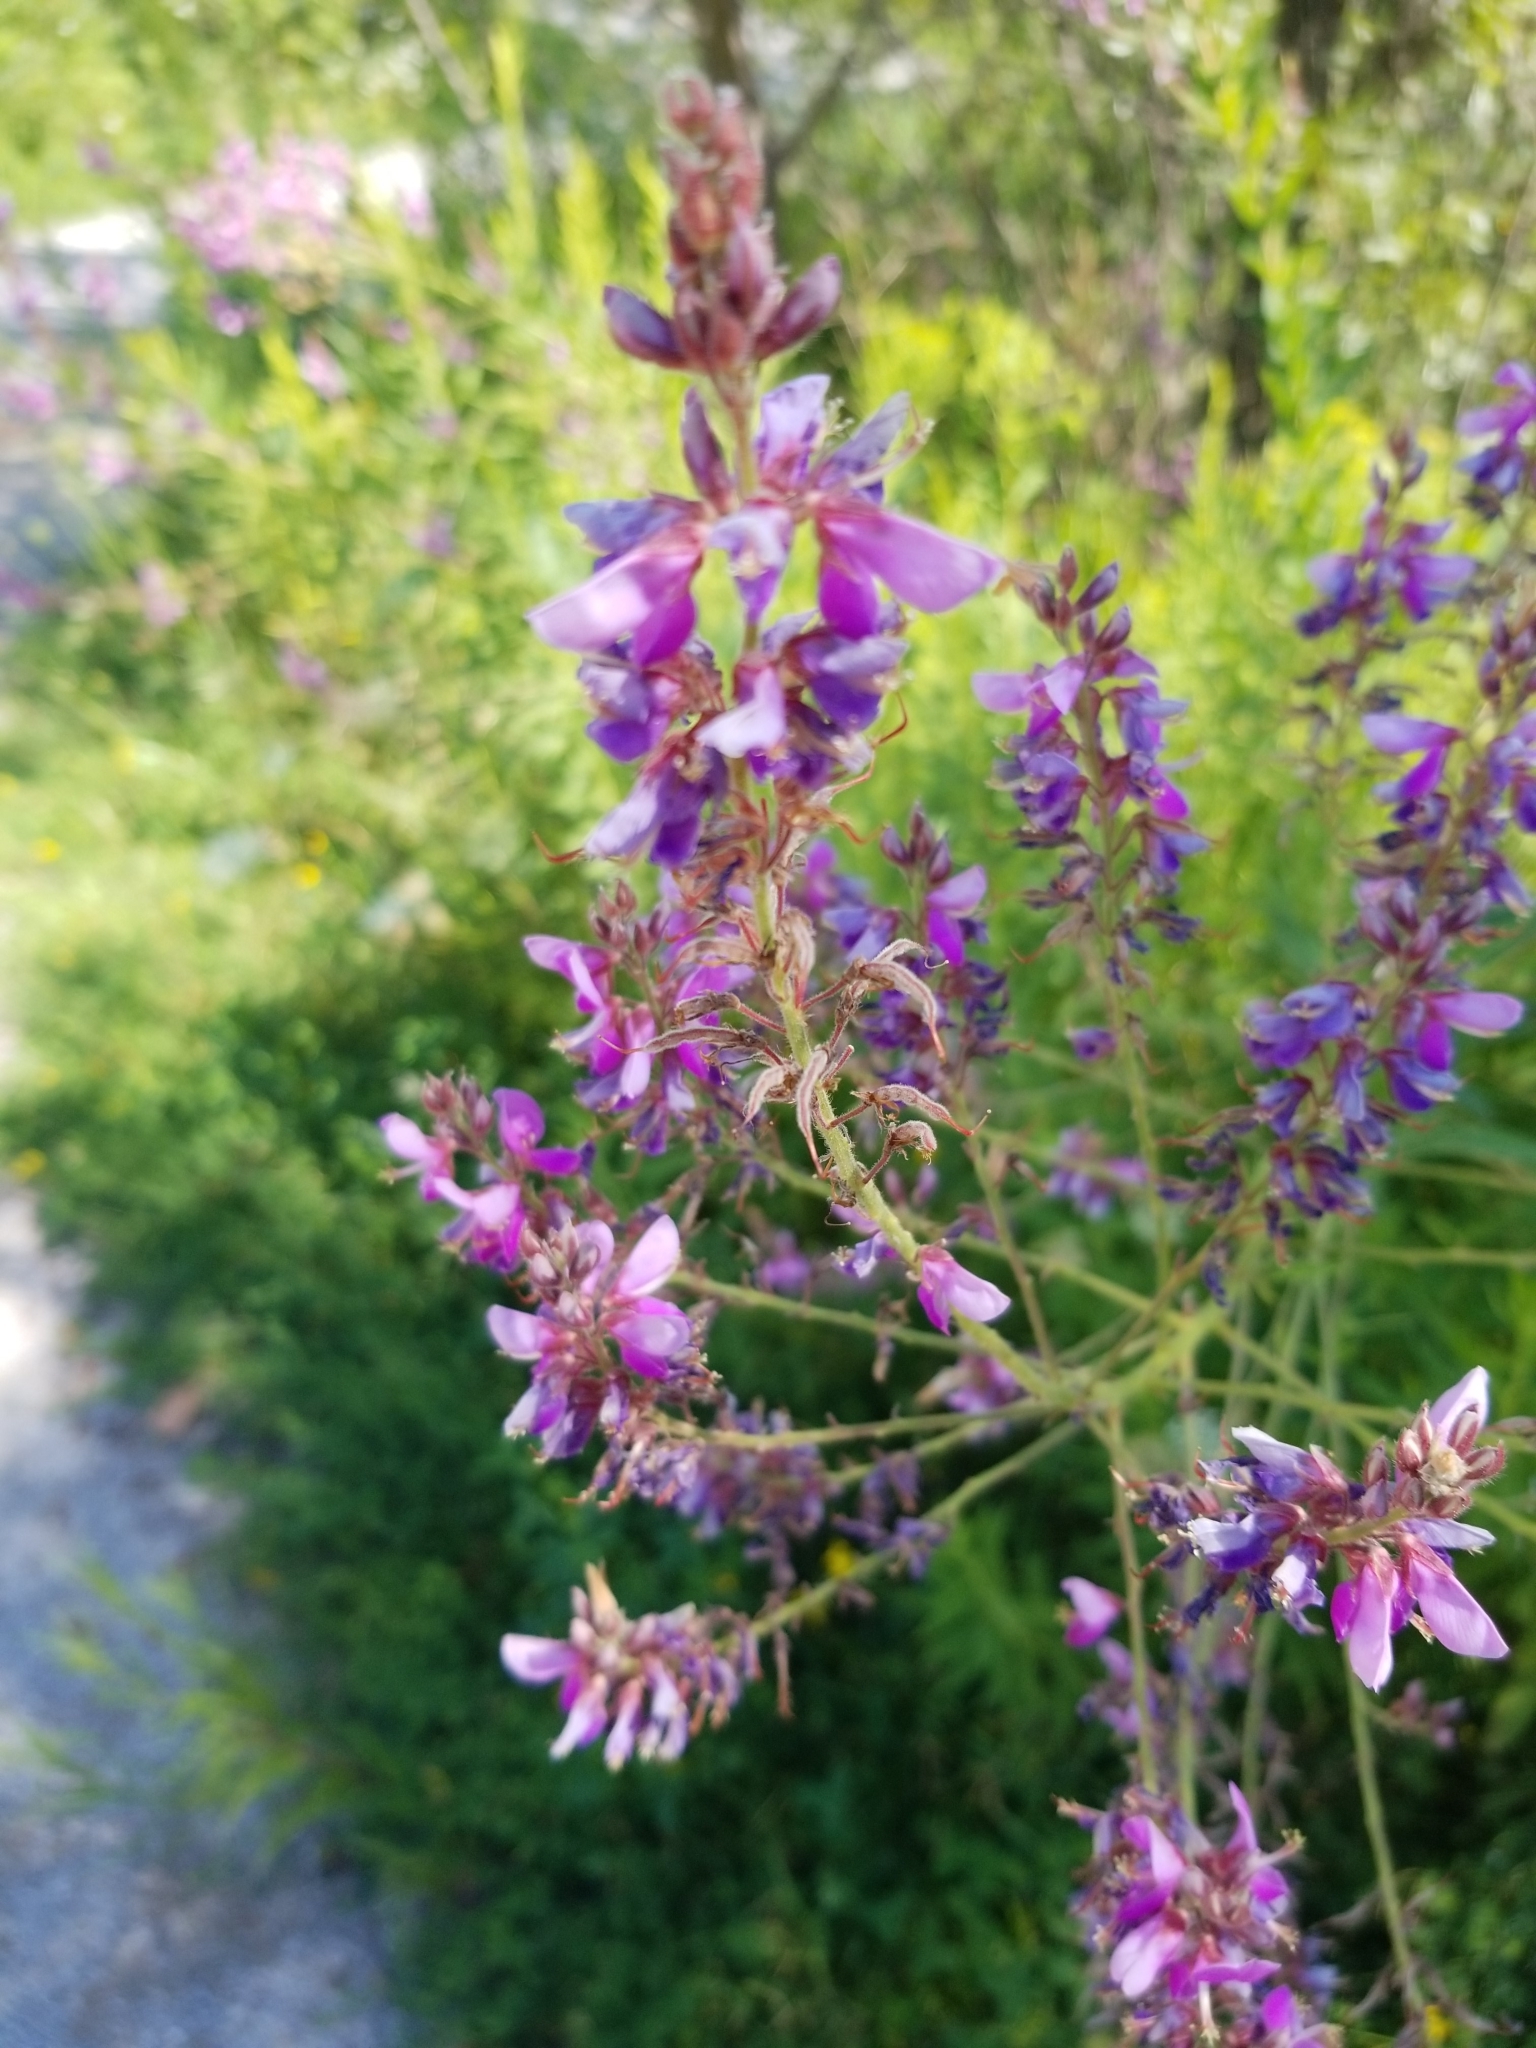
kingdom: Plantae
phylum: Tracheophyta
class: Magnoliopsida
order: Fabales
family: Fabaceae
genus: Desmodium
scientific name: Desmodium canadense
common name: Canada tick-trefoil
